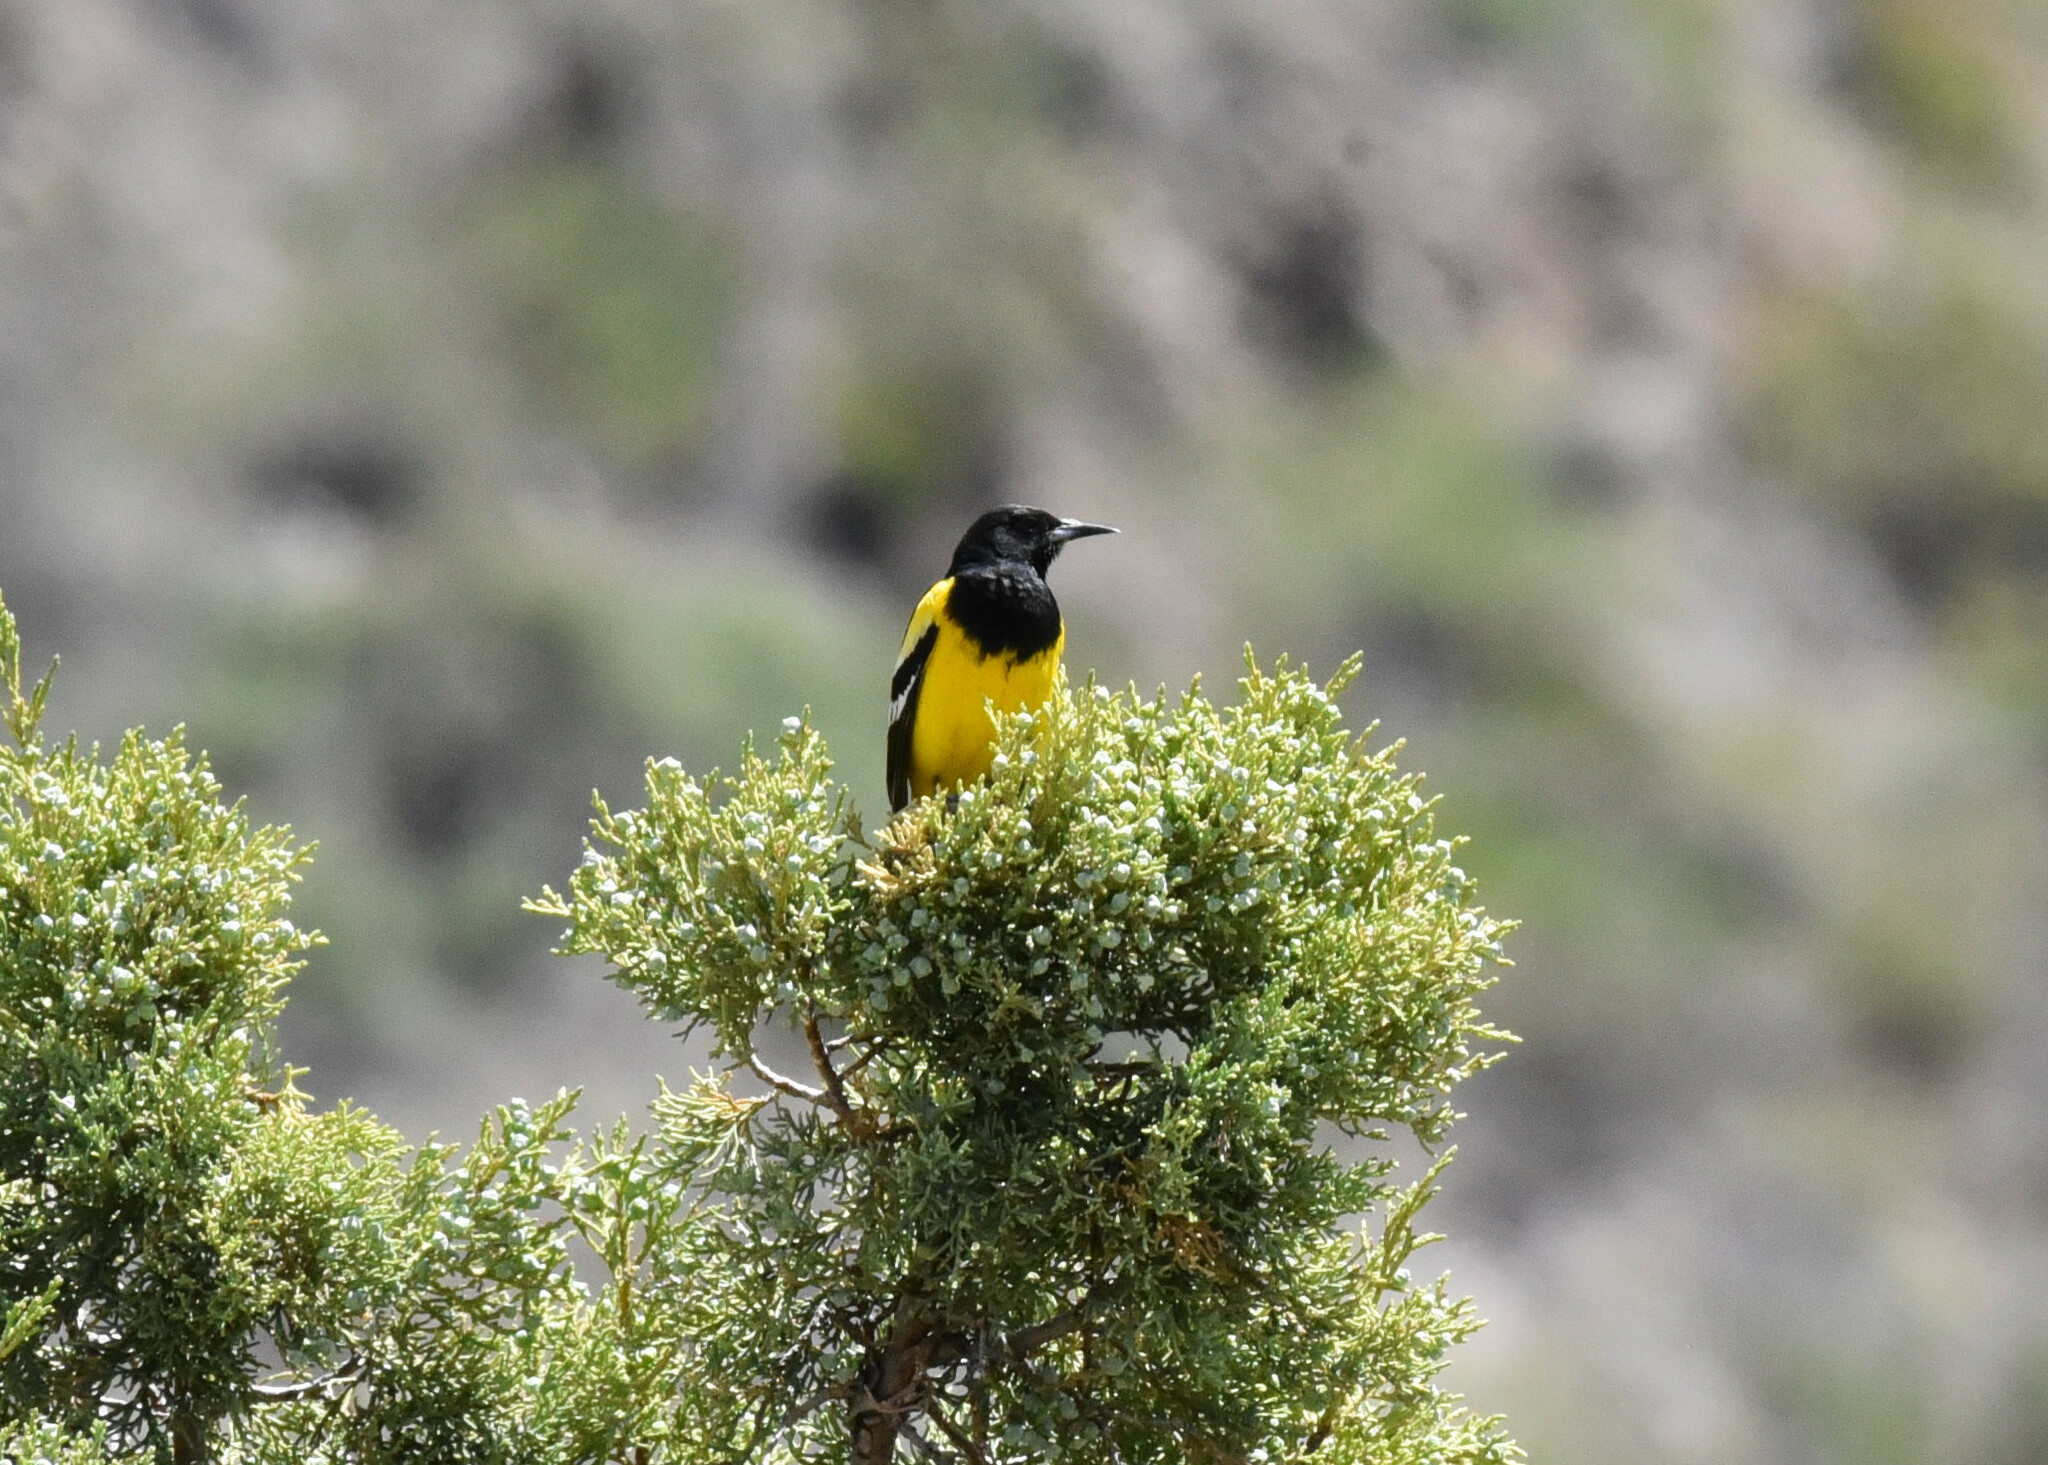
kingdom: Animalia
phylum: Chordata
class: Aves
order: Passeriformes
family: Icteridae
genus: Icterus
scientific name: Icterus parisorum
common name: Scott's oriole
